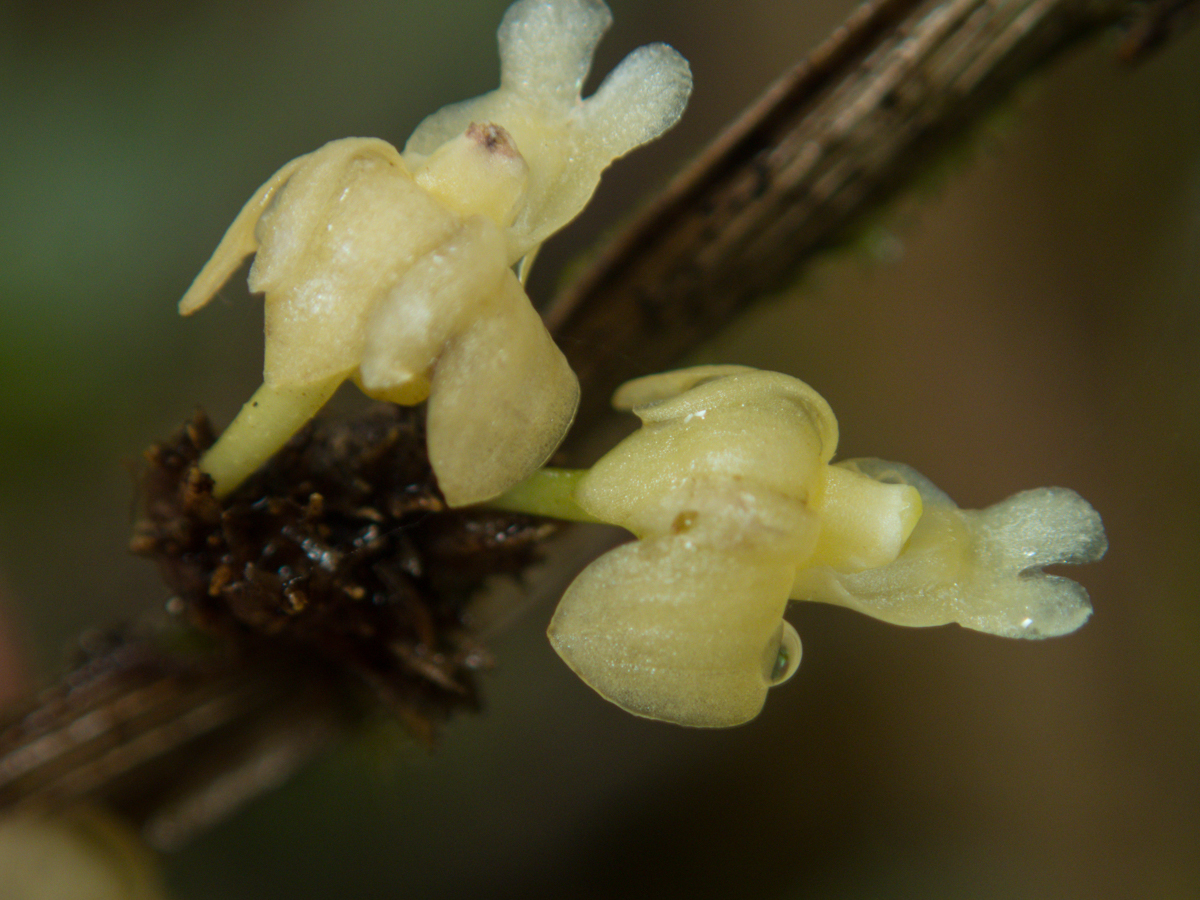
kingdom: Plantae
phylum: Tracheophyta
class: Liliopsida
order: Asparagales
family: Orchidaceae
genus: Dendrobium
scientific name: Dendrobium aloifolium
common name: Aloe-like dendrobium
